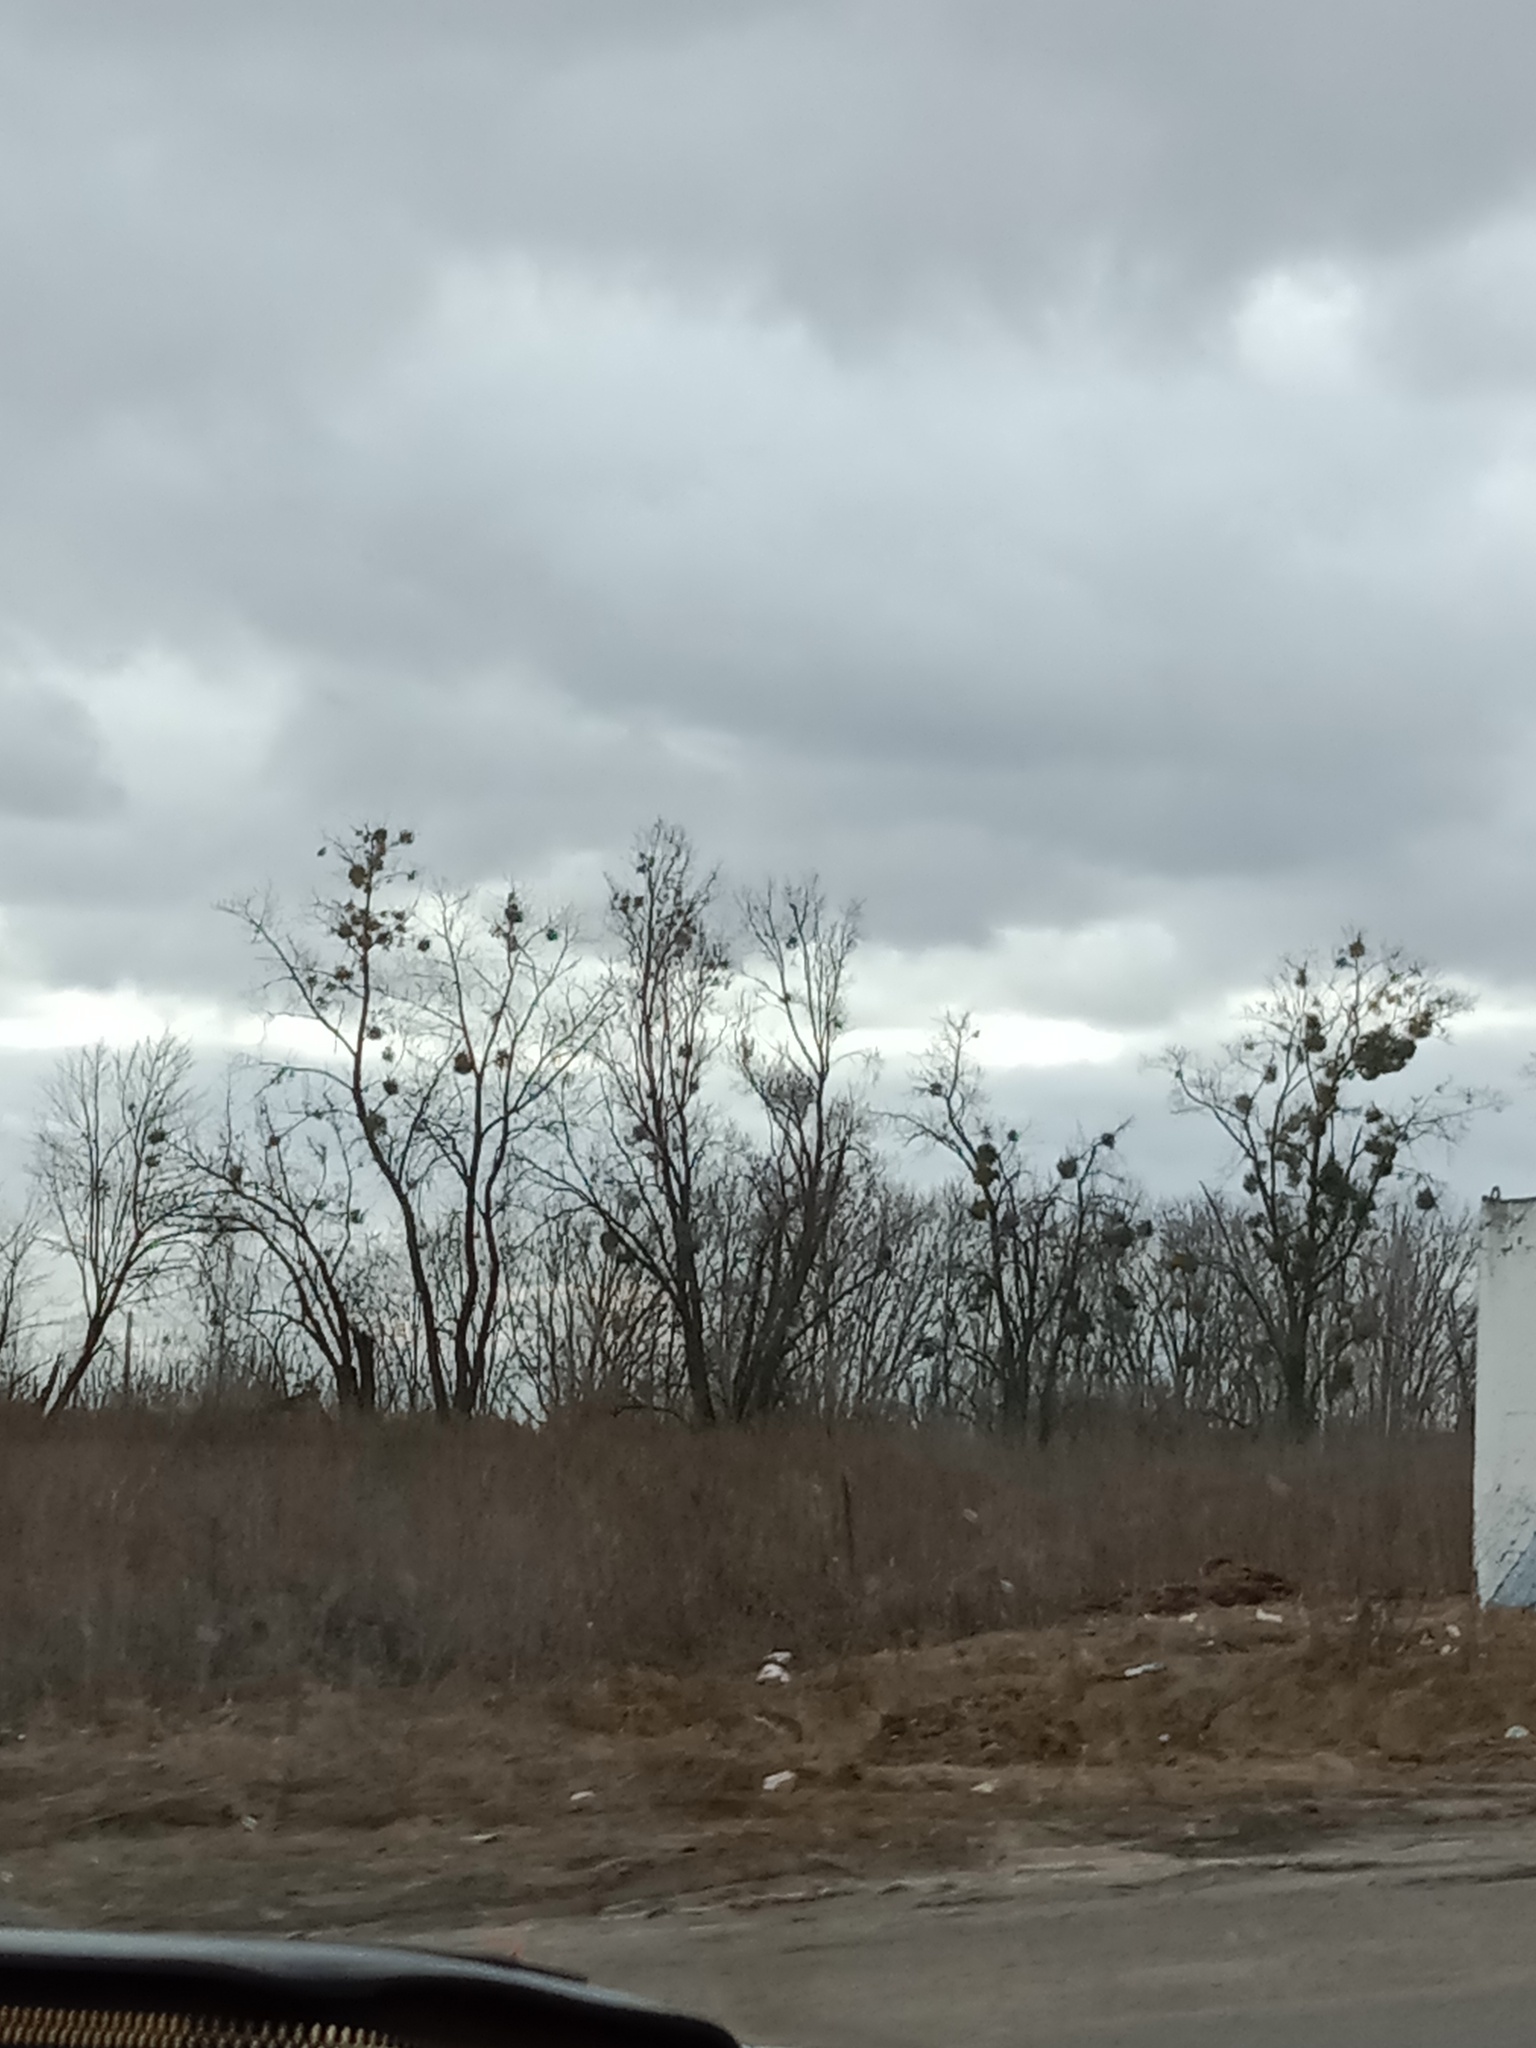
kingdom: Plantae
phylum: Tracheophyta
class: Magnoliopsida
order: Santalales
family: Viscaceae
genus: Viscum
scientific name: Viscum album
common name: Mistletoe
